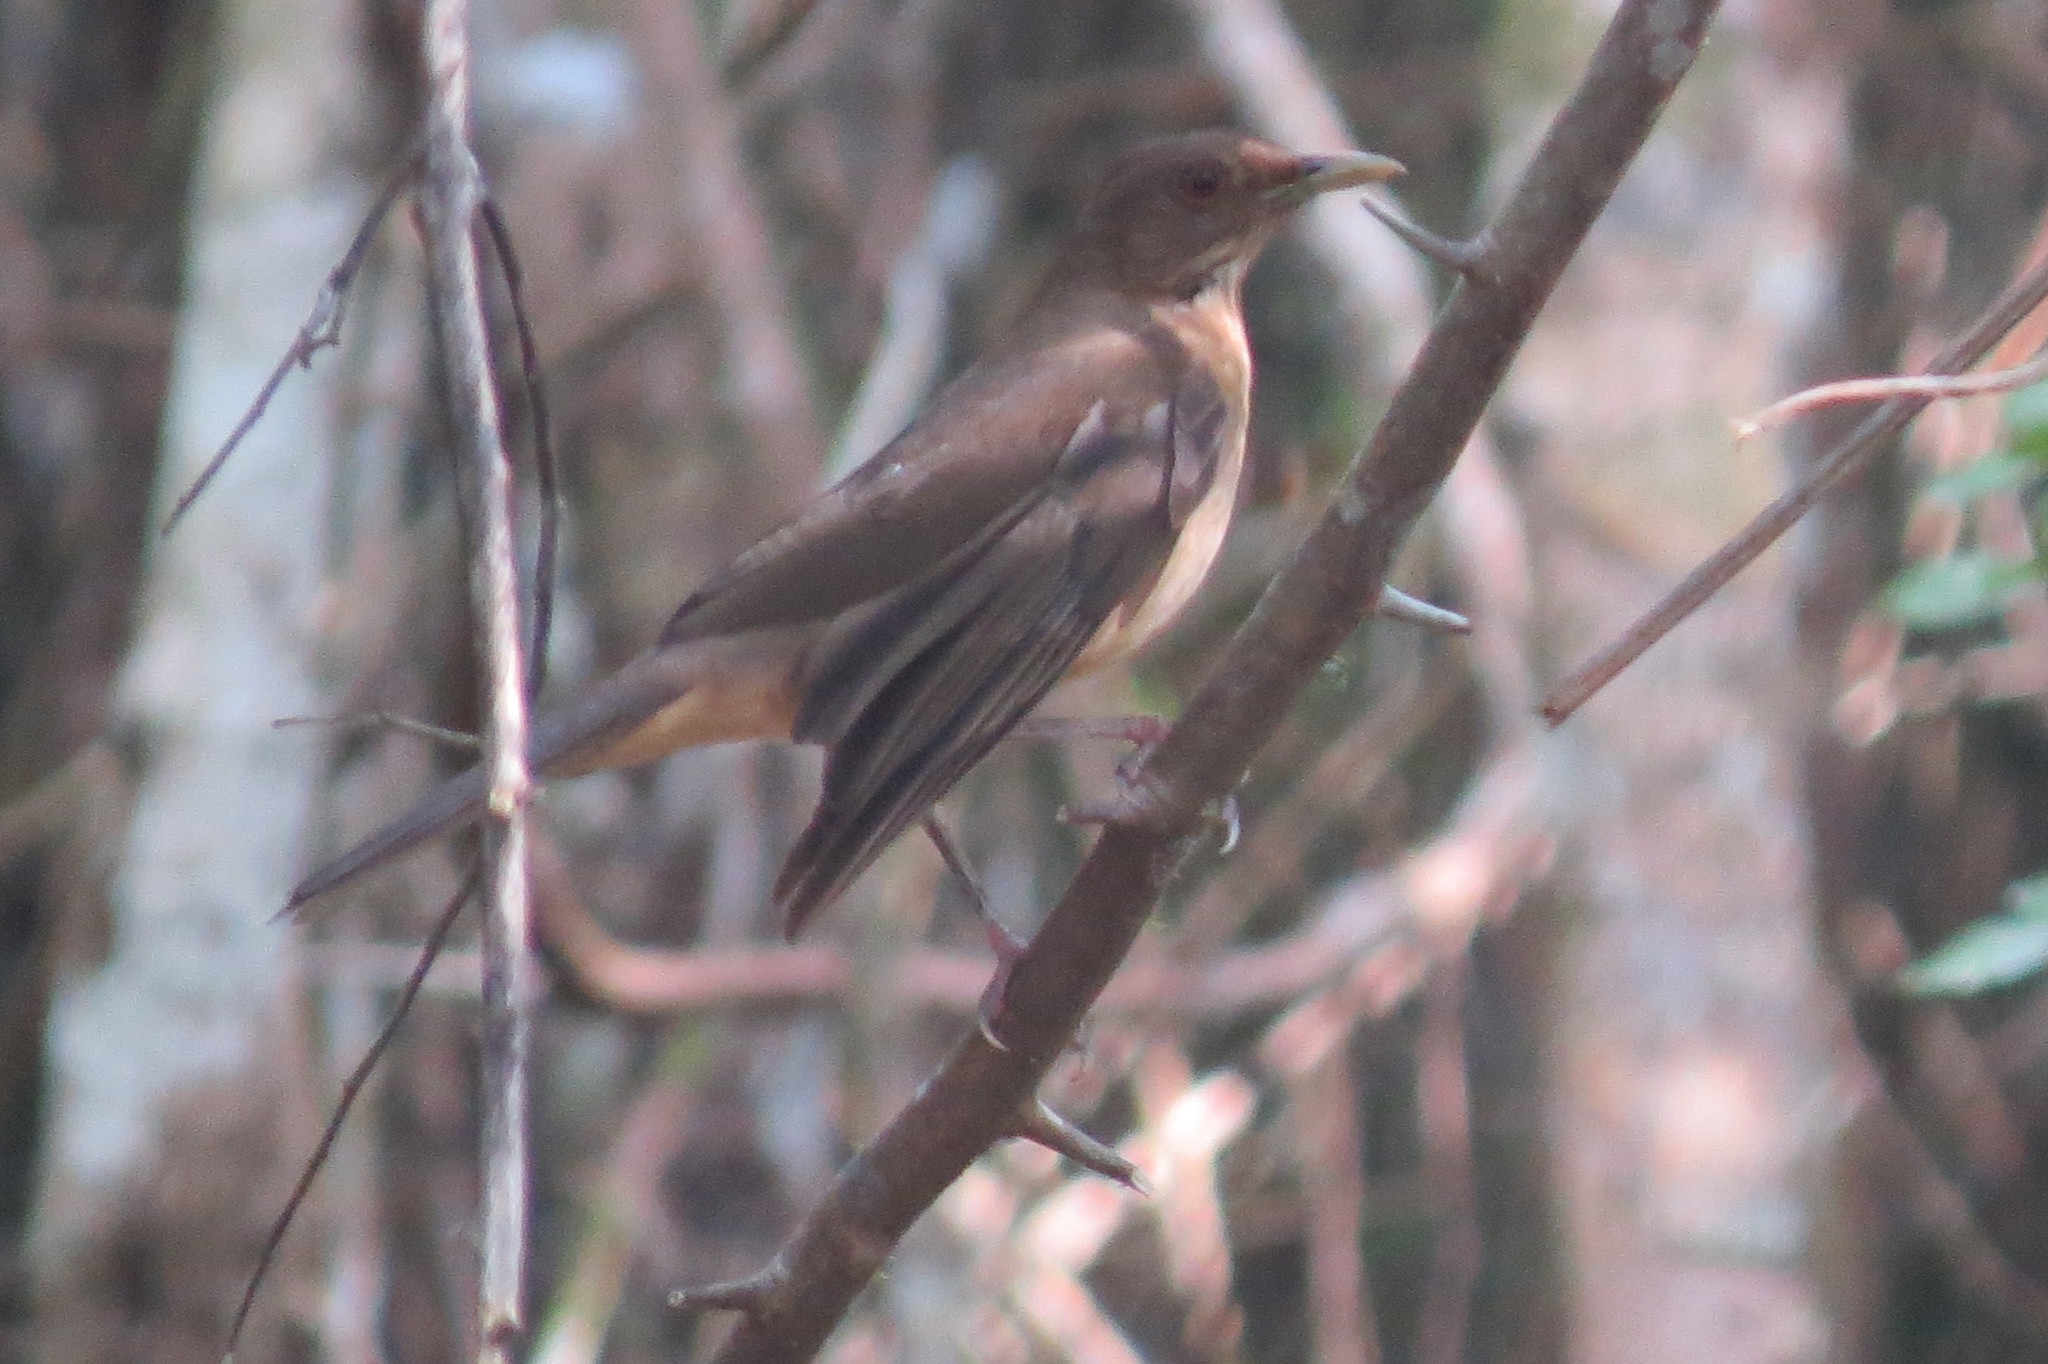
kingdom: Animalia
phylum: Chordata
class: Aves
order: Passeriformes
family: Turdidae
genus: Turdus
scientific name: Turdus grayi
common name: Clay-colored thrush
